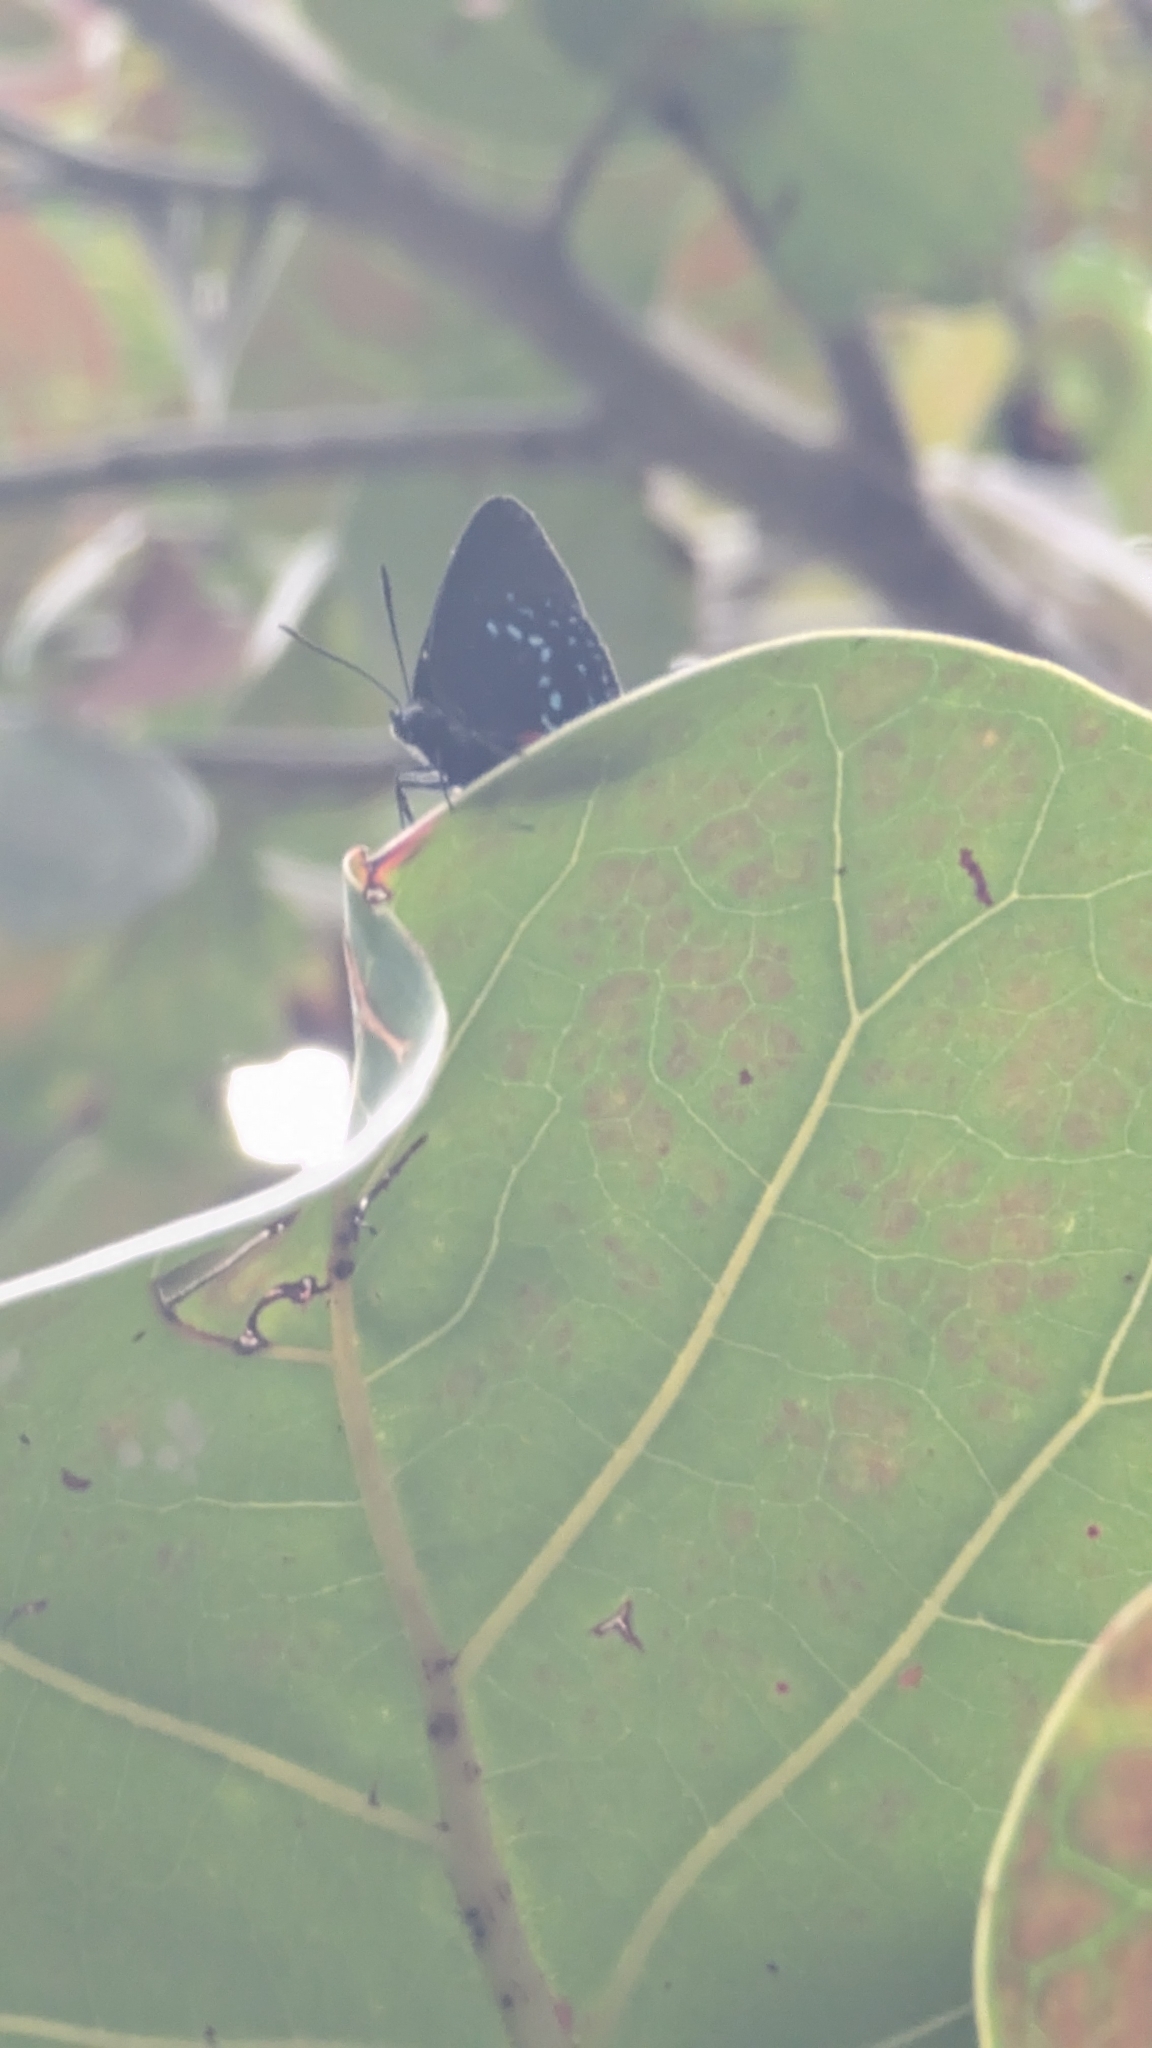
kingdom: Animalia
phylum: Arthropoda
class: Insecta
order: Lepidoptera
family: Lycaenidae
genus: Eumaeus
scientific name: Eumaeus atala
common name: Atala
